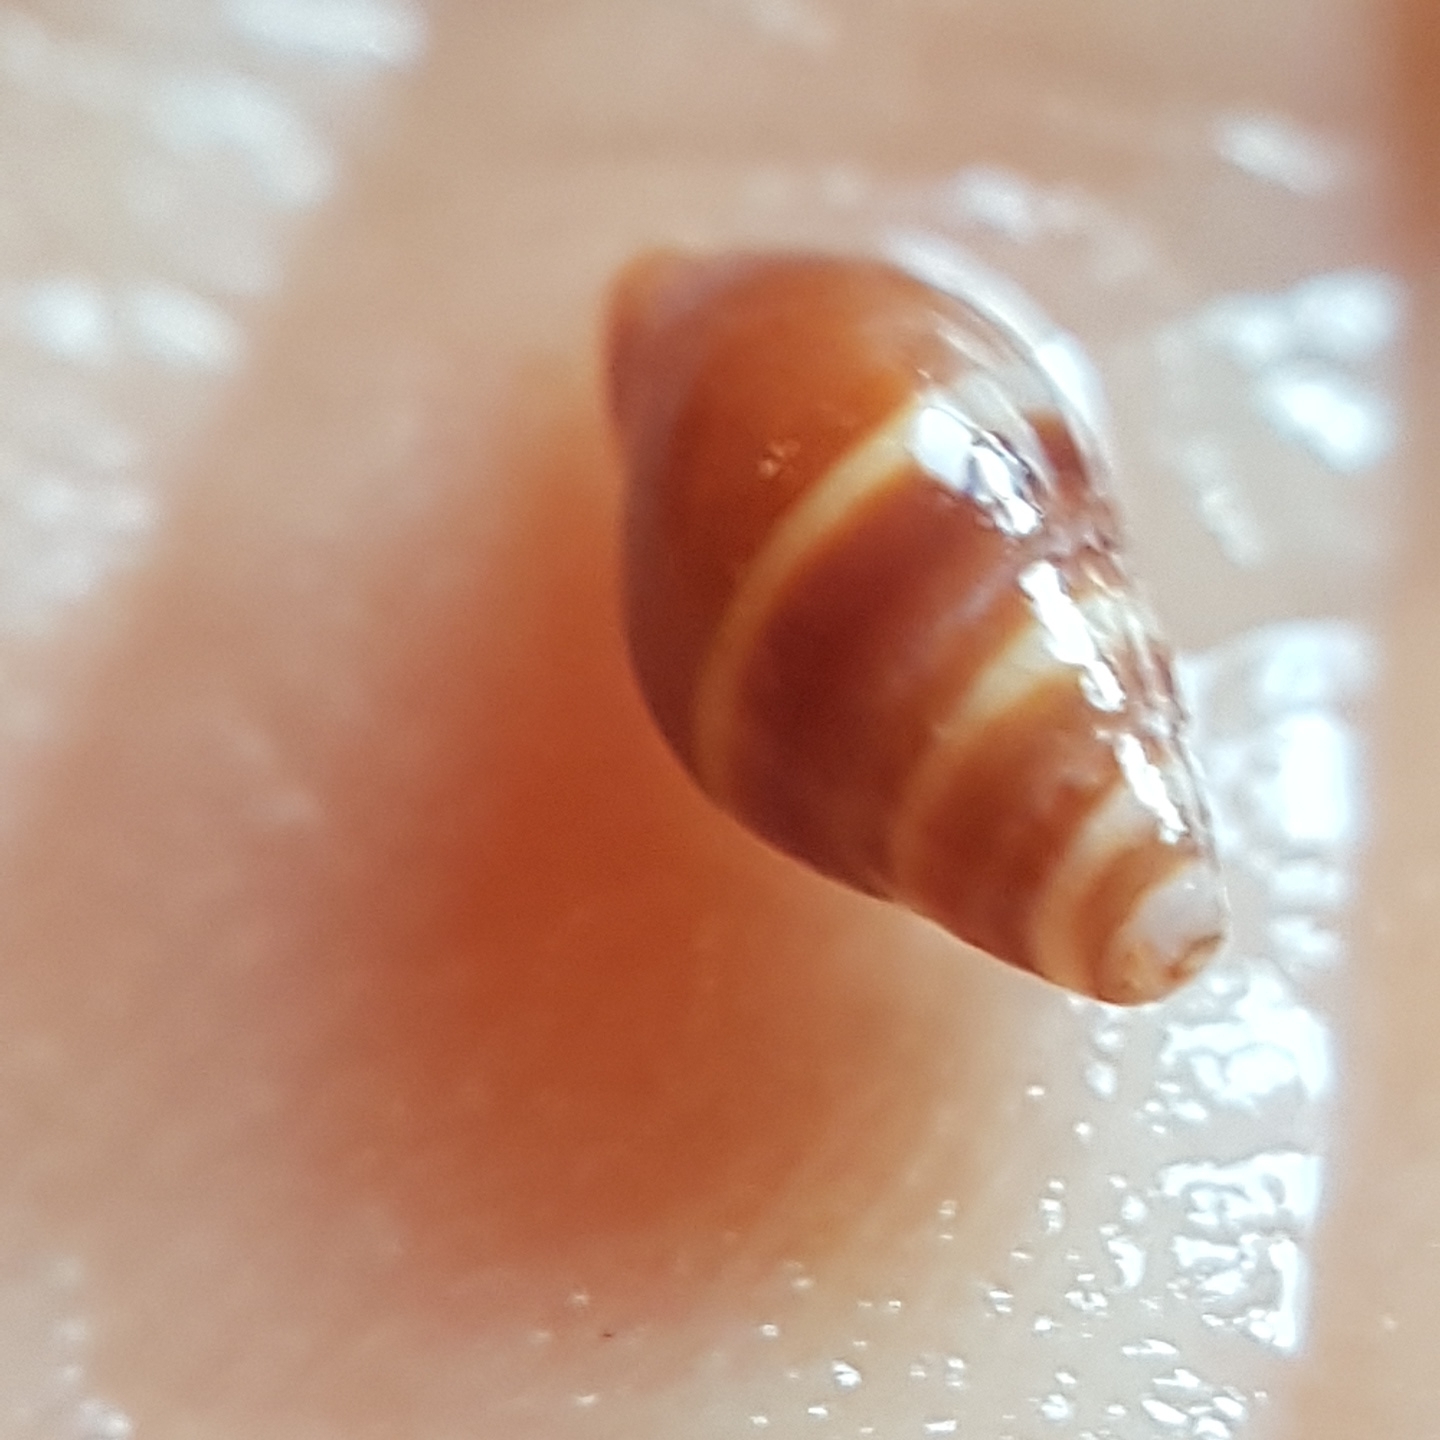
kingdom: Animalia
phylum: Mollusca
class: Gastropoda
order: Neogastropoda
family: Costellariidae
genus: Pusia
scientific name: Pusia ebenus
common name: Brown mitre
